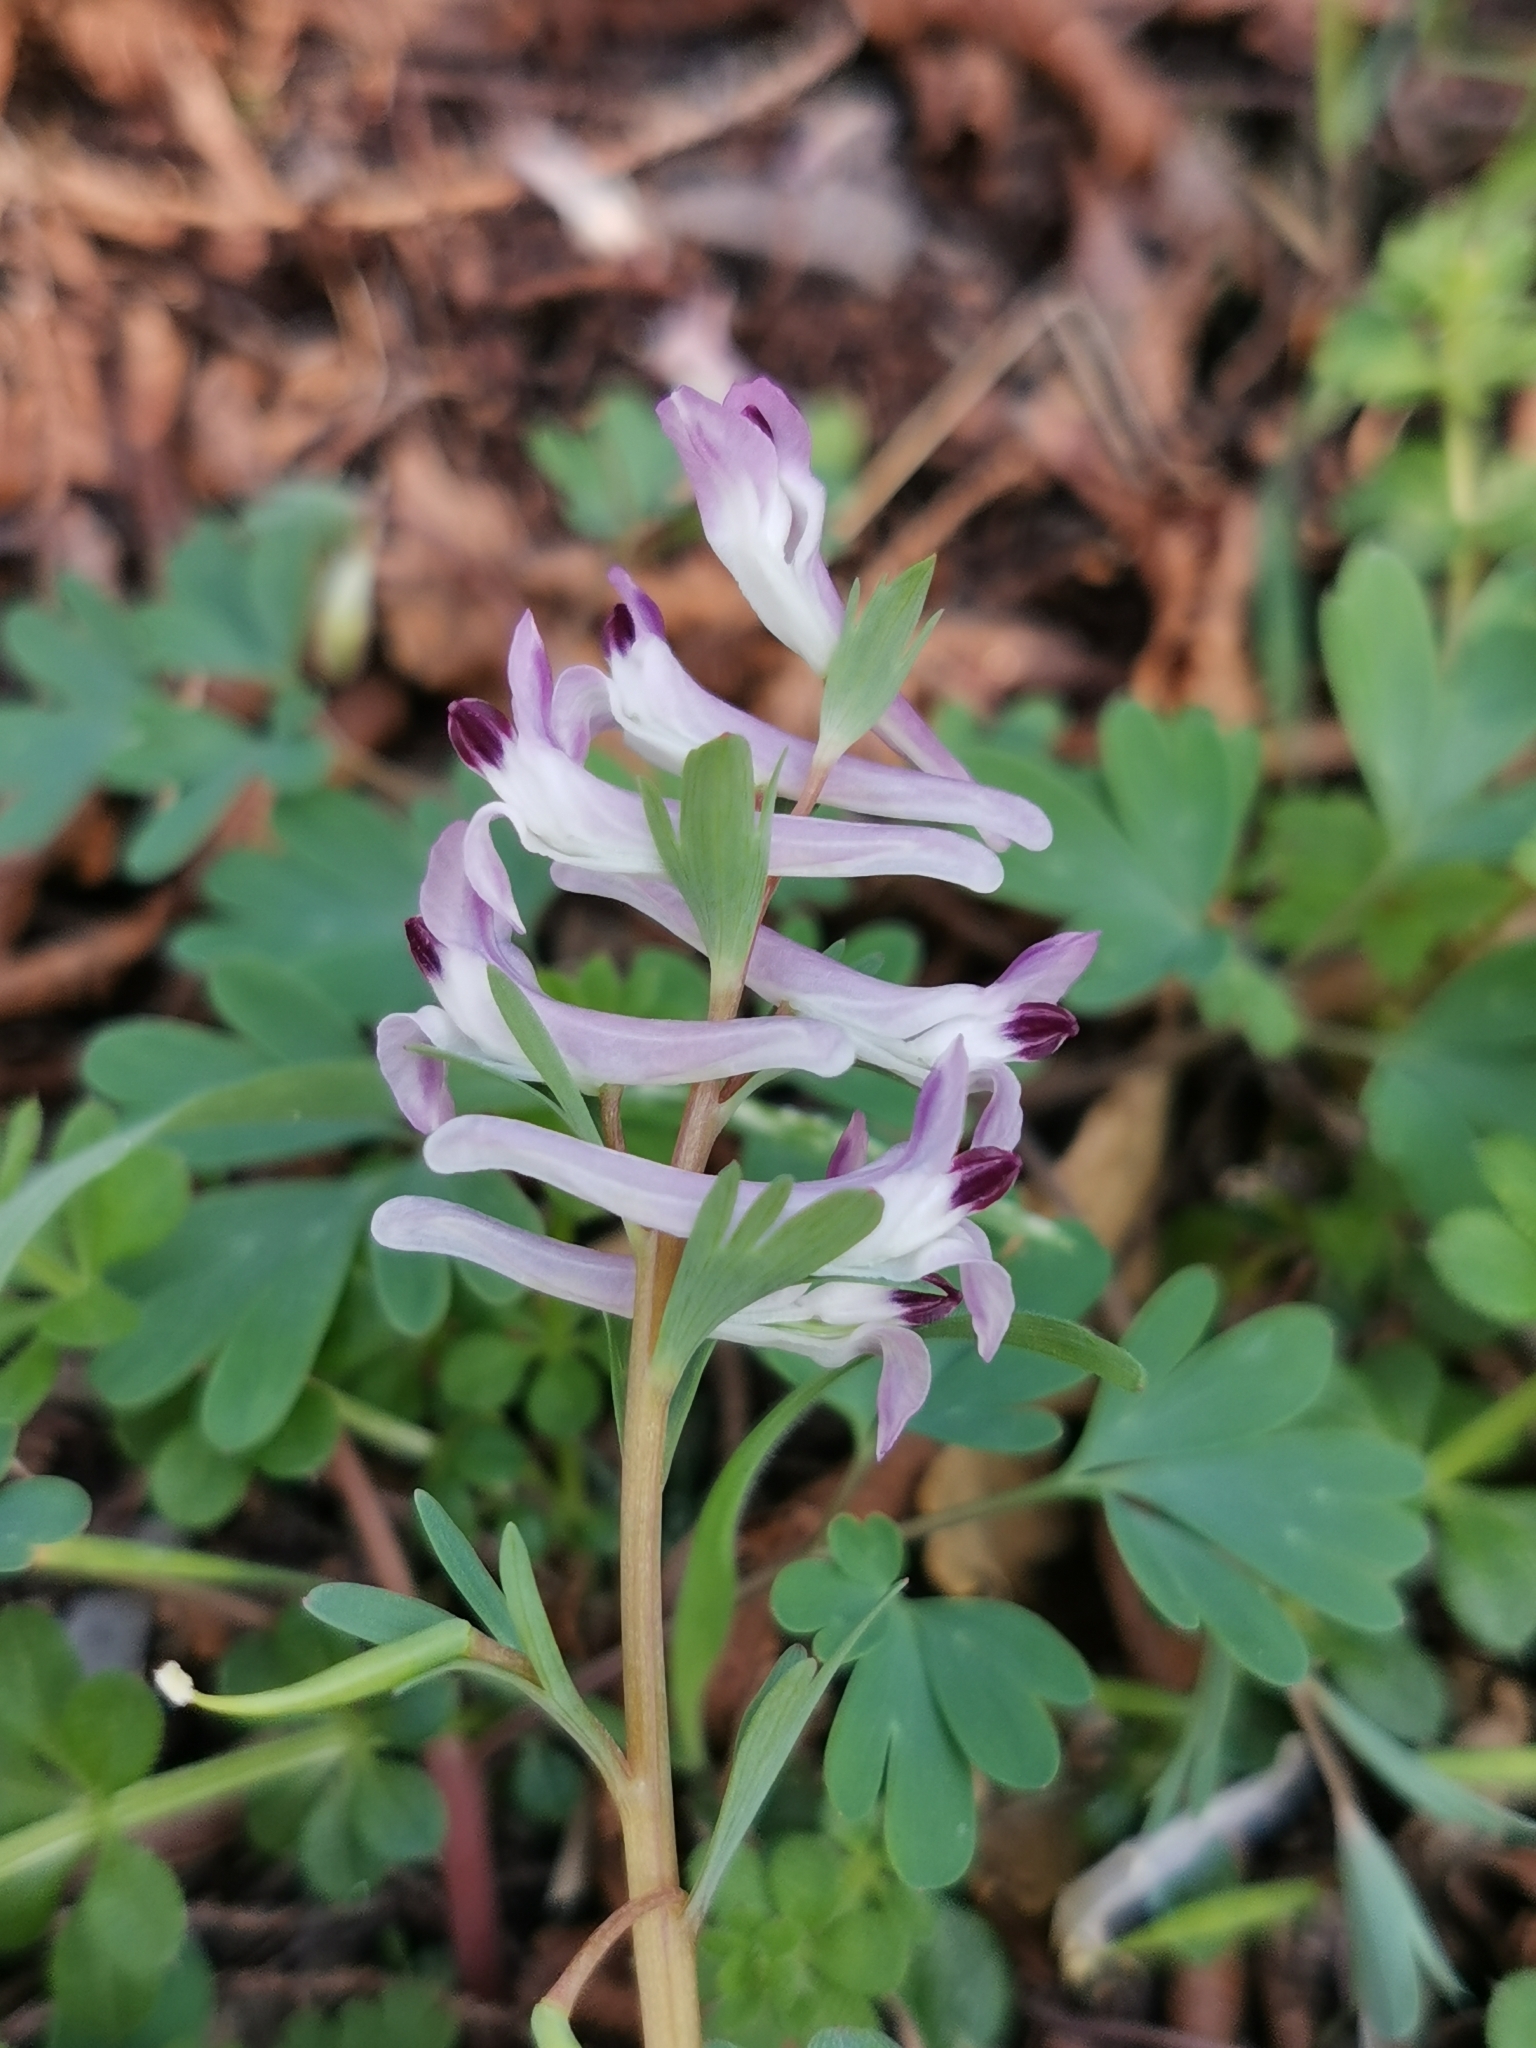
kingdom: Plantae
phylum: Tracheophyta
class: Magnoliopsida
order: Ranunculales
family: Papaveraceae
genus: Corydalis
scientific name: Corydalis paczoskii
